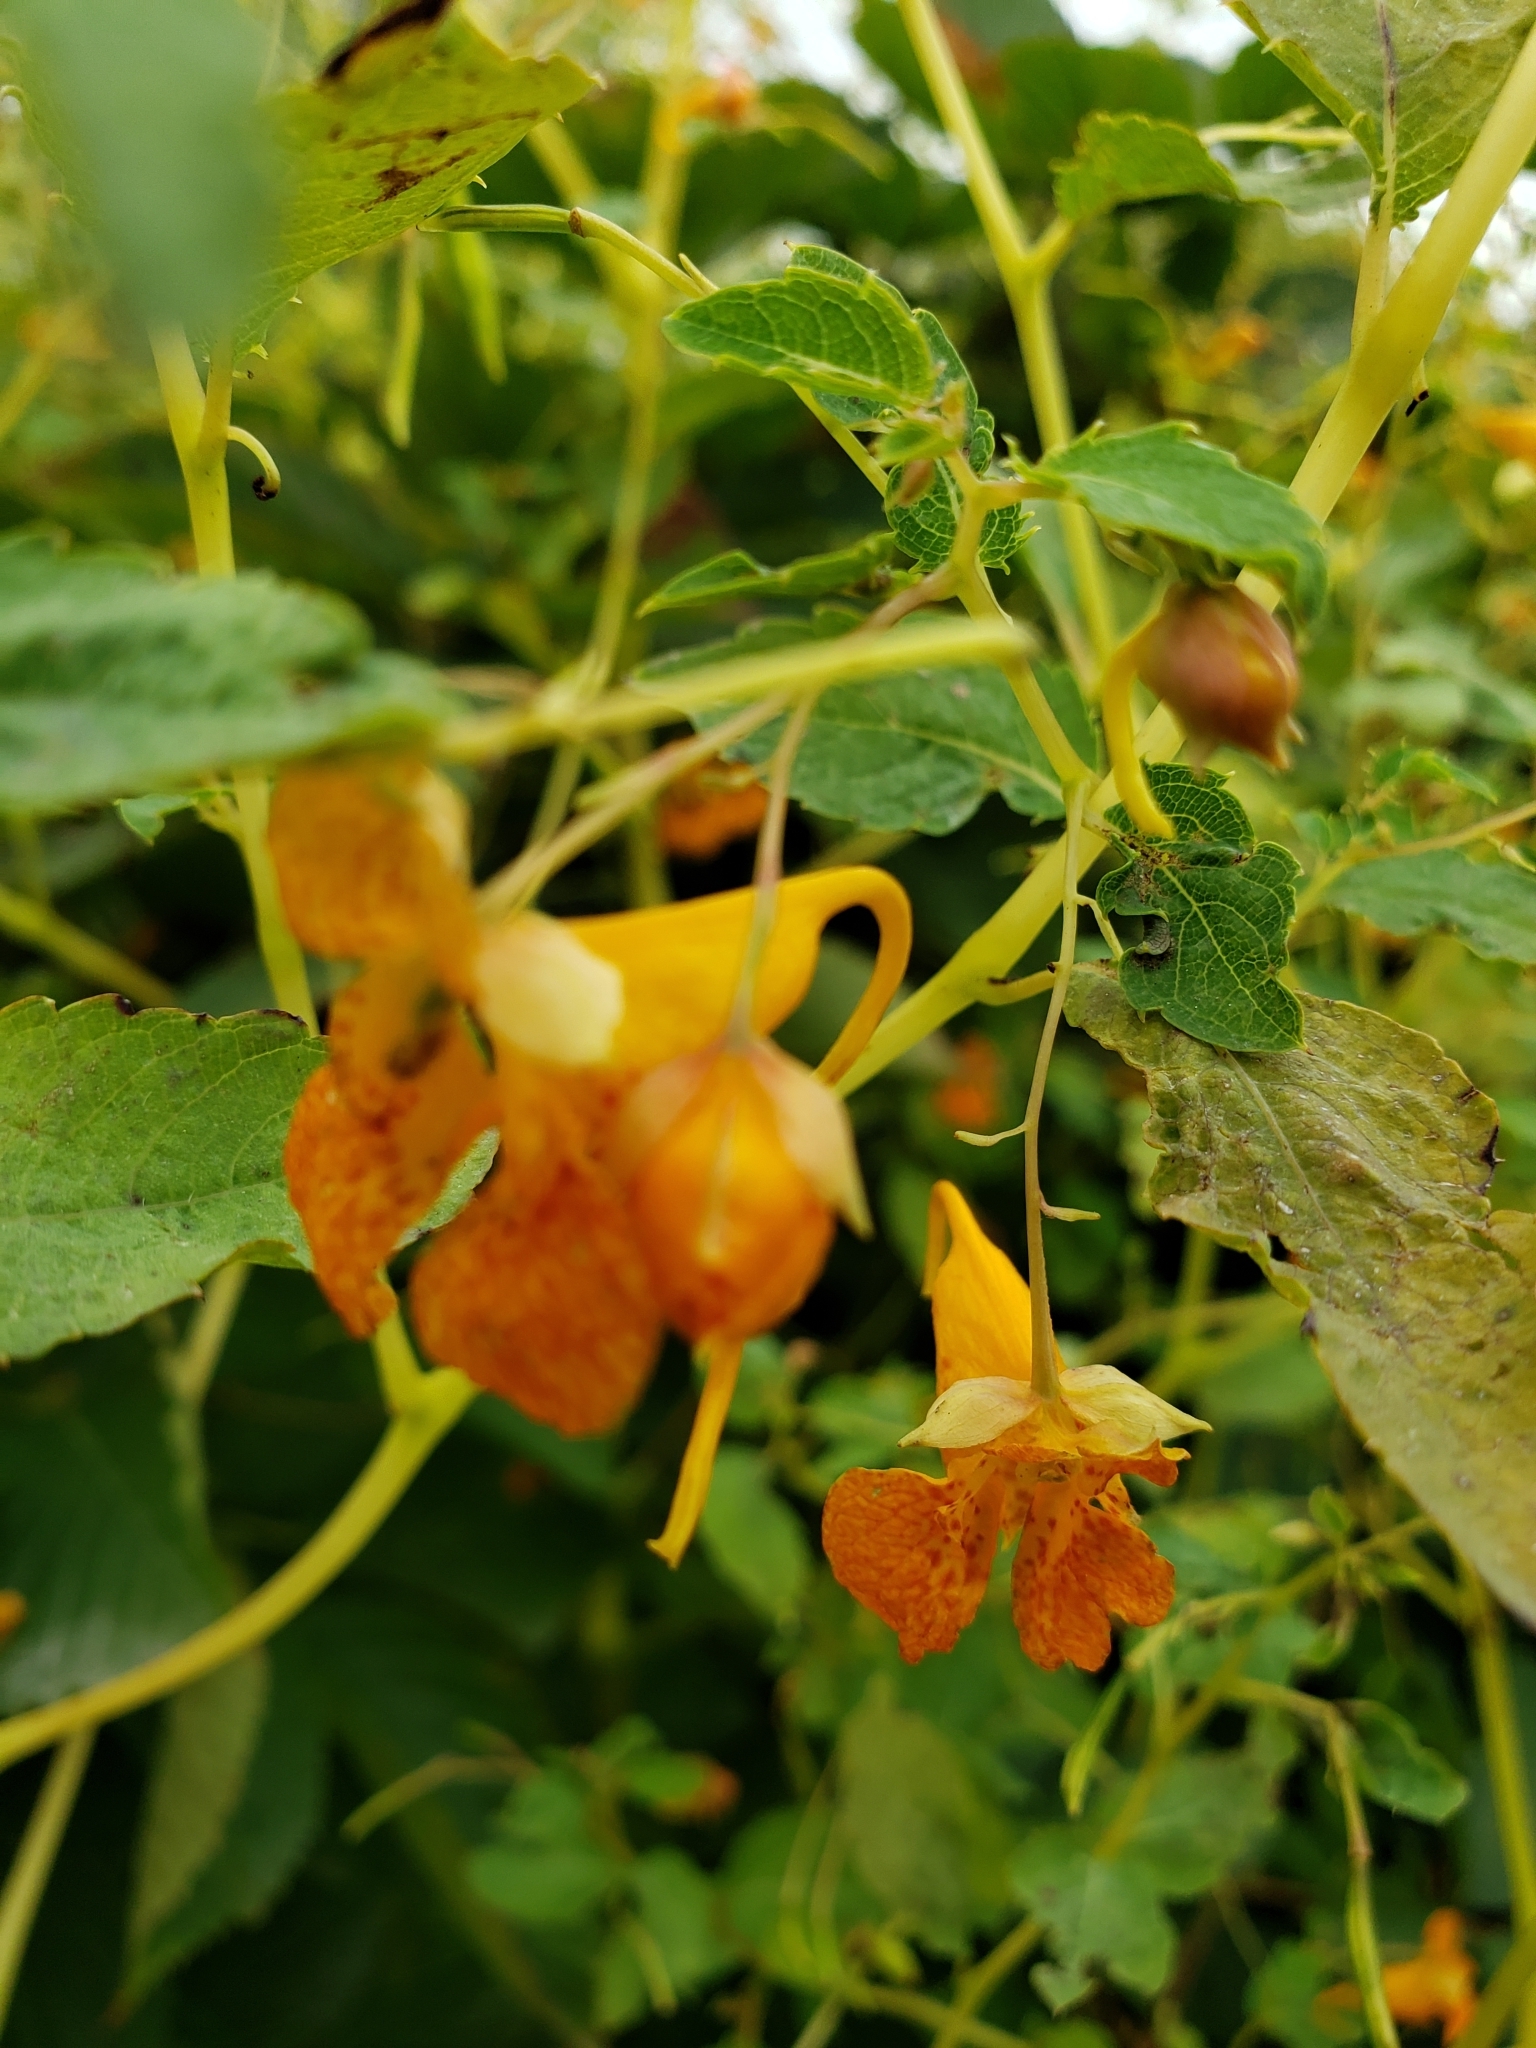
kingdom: Plantae
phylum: Tracheophyta
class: Magnoliopsida
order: Ericales
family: Balsaminaceae
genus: Impatiens
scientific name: Impatiens capensis
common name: Orange balsam
